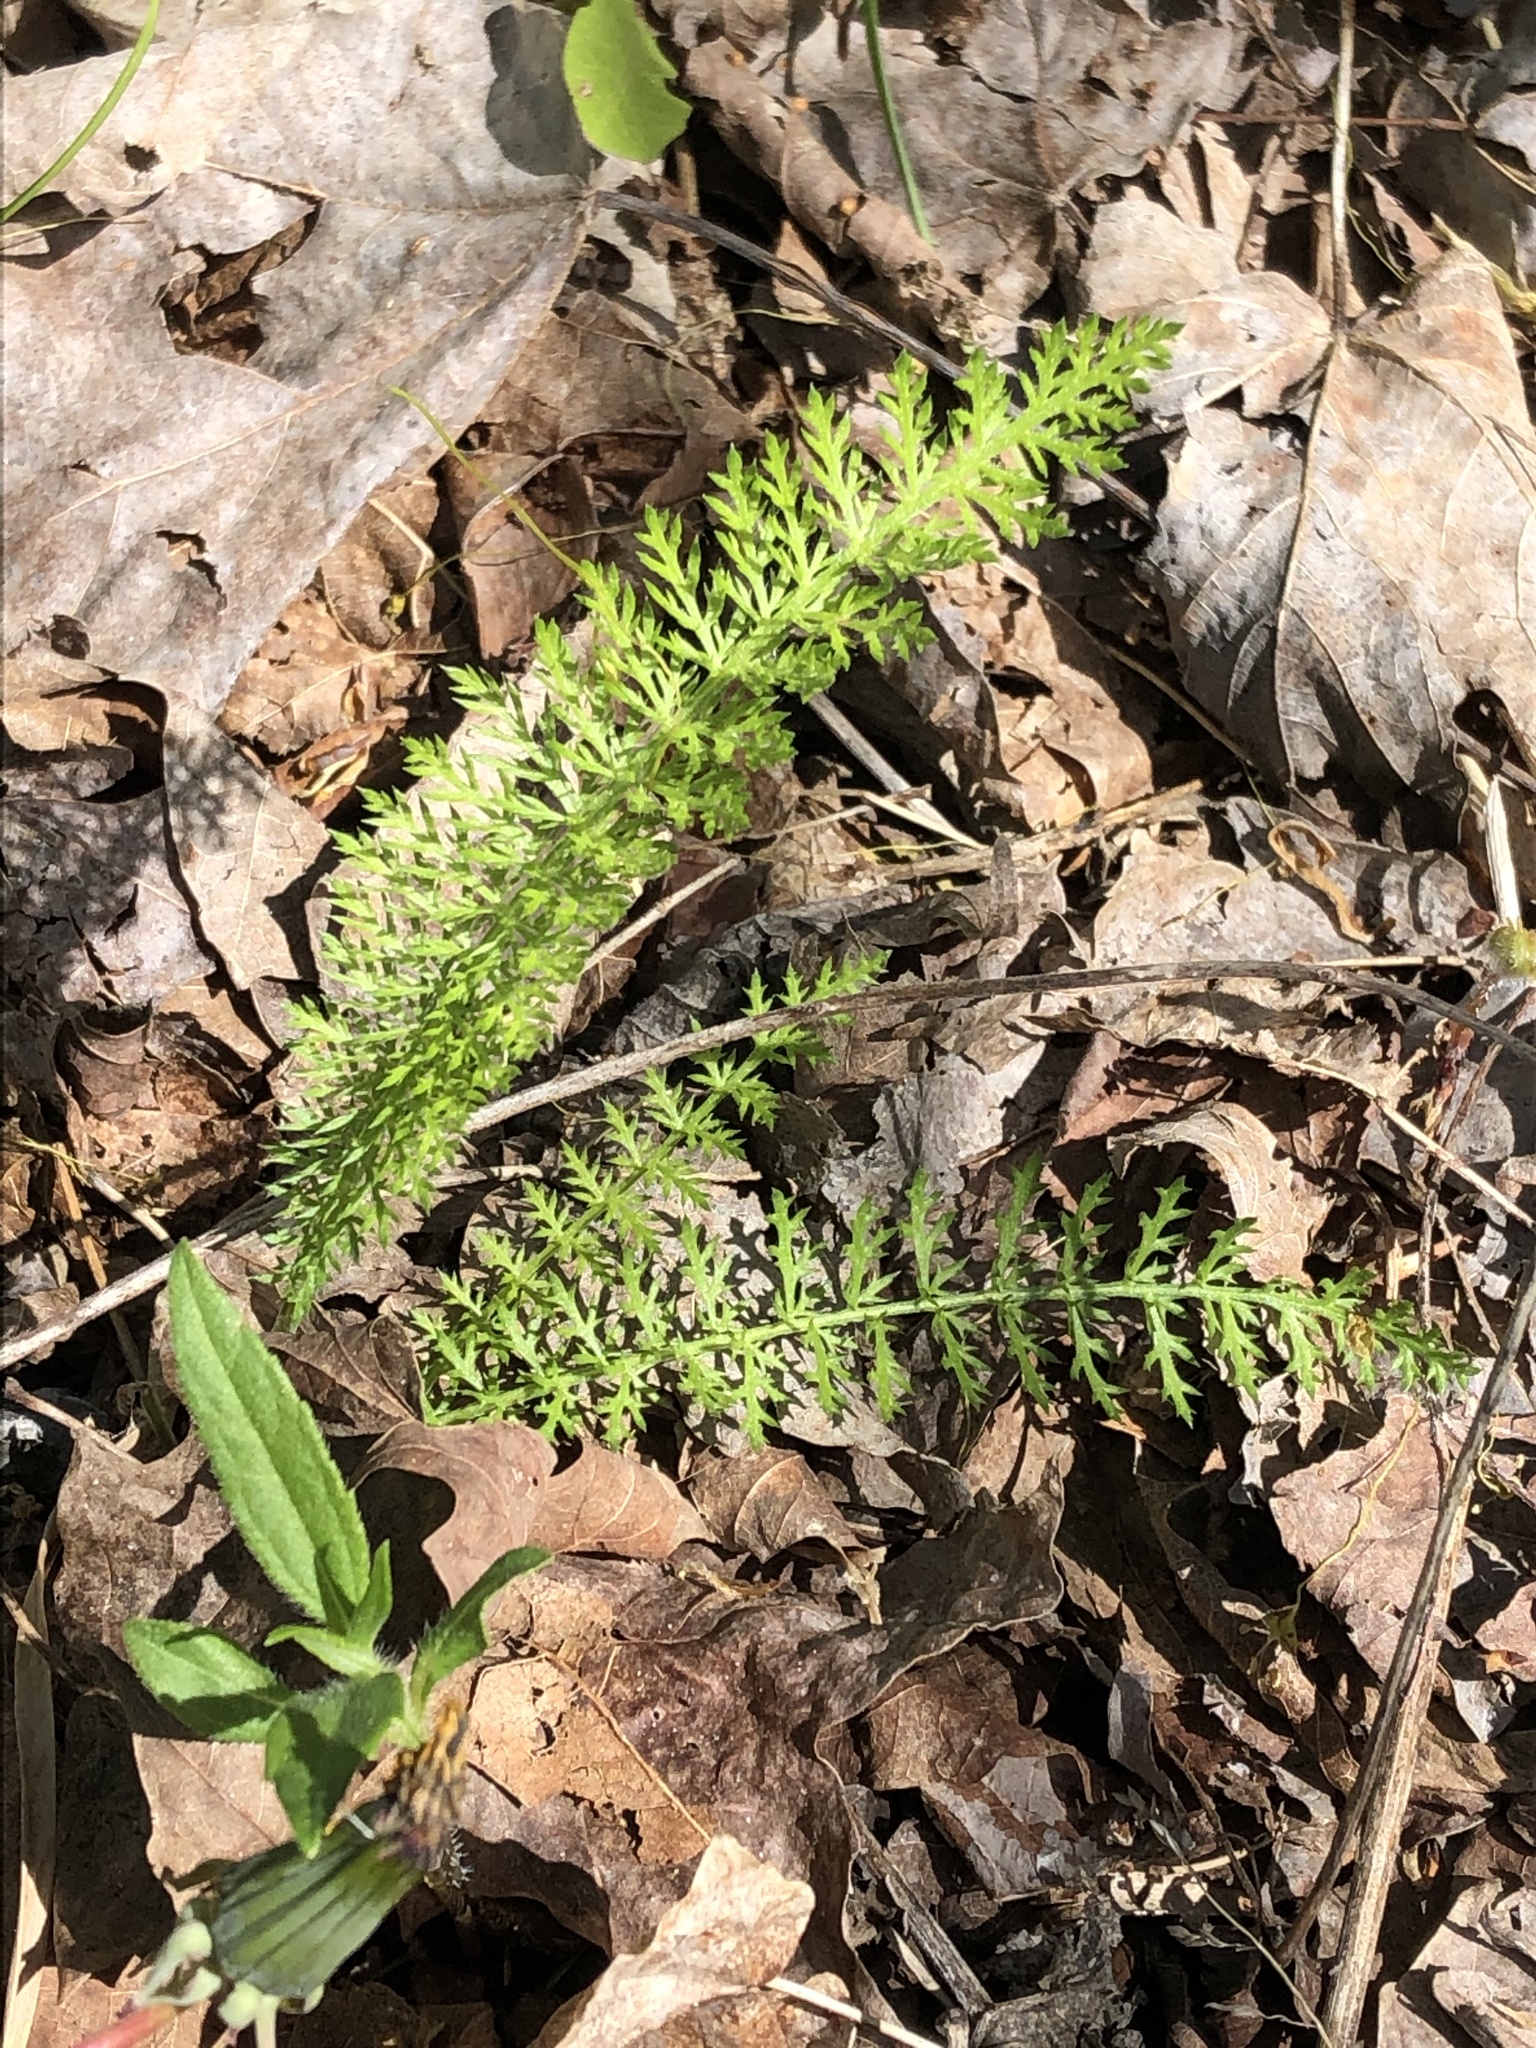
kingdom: Plantae
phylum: Tracheophyta
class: Magnoliopsida
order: Asterales
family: Asteraceae
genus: Achillea
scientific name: Achillea millefolium
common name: Yarrow
